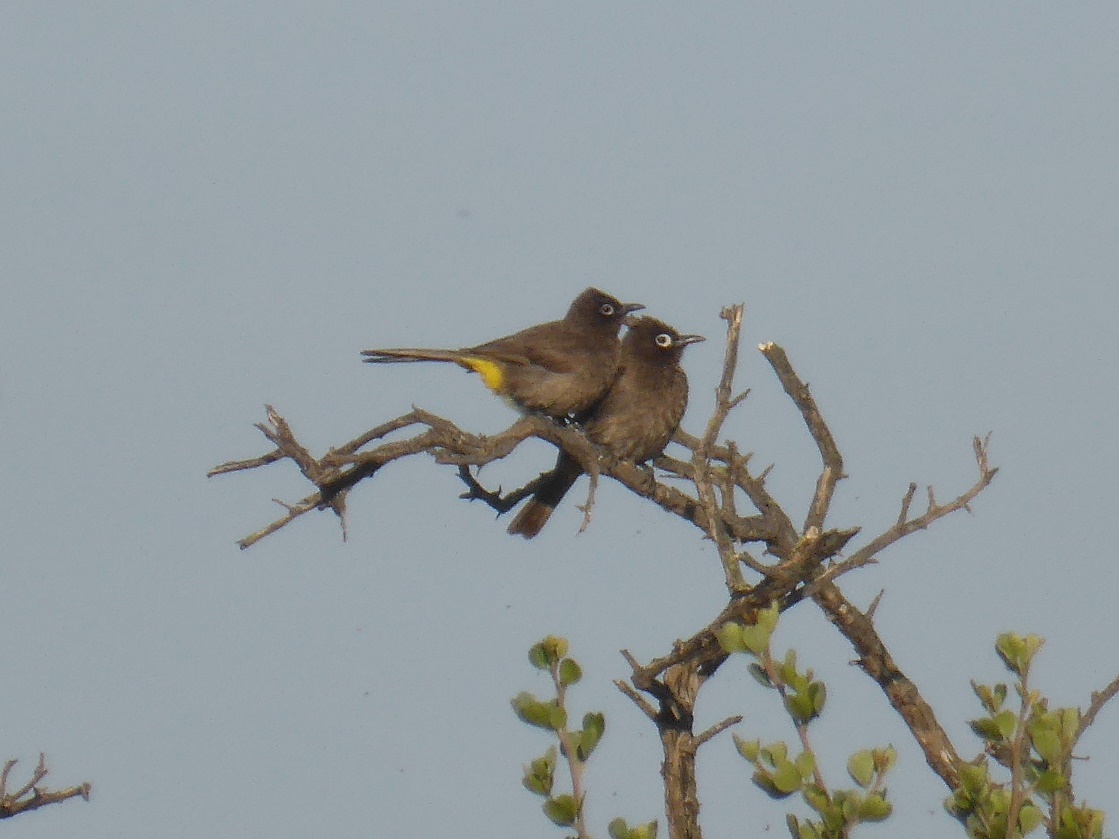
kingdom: Animalia
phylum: Chordata
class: Aves
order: Passeriformes
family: Pycnonotidae
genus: Pycnonotus
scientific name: Pycnonotus capensis
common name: Cape bulbul
